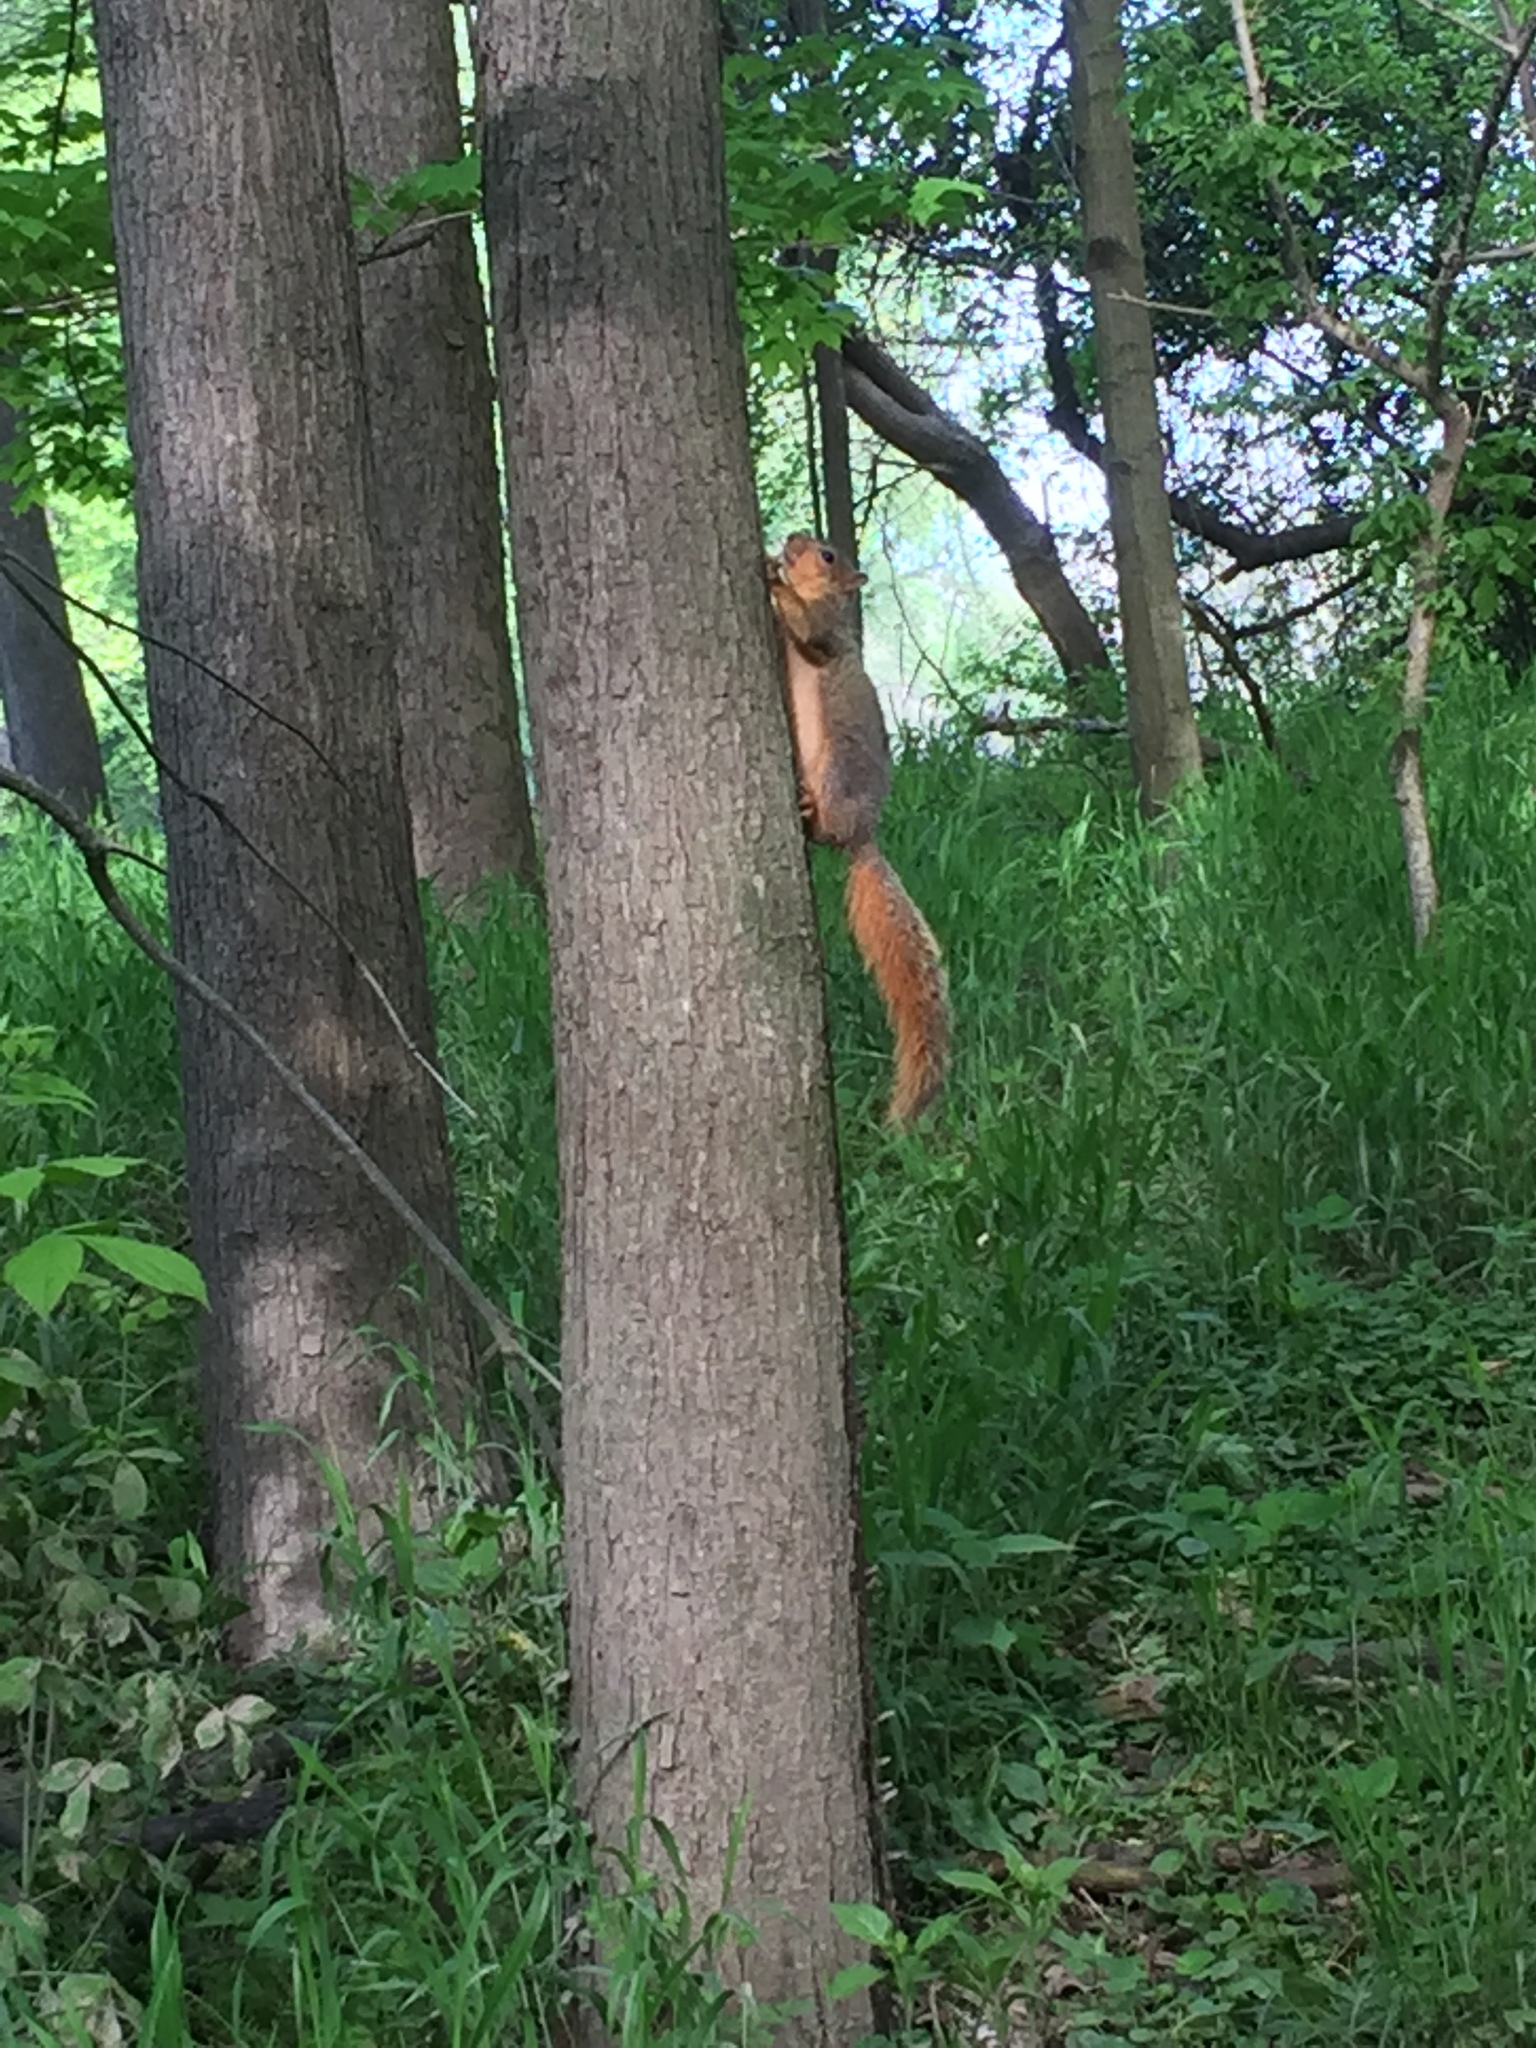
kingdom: Animalia
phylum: Chordata
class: Mammalia
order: Rodentia
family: Sciuridae
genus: Sciurus
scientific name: Sciurus niger
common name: Fox squirrel
